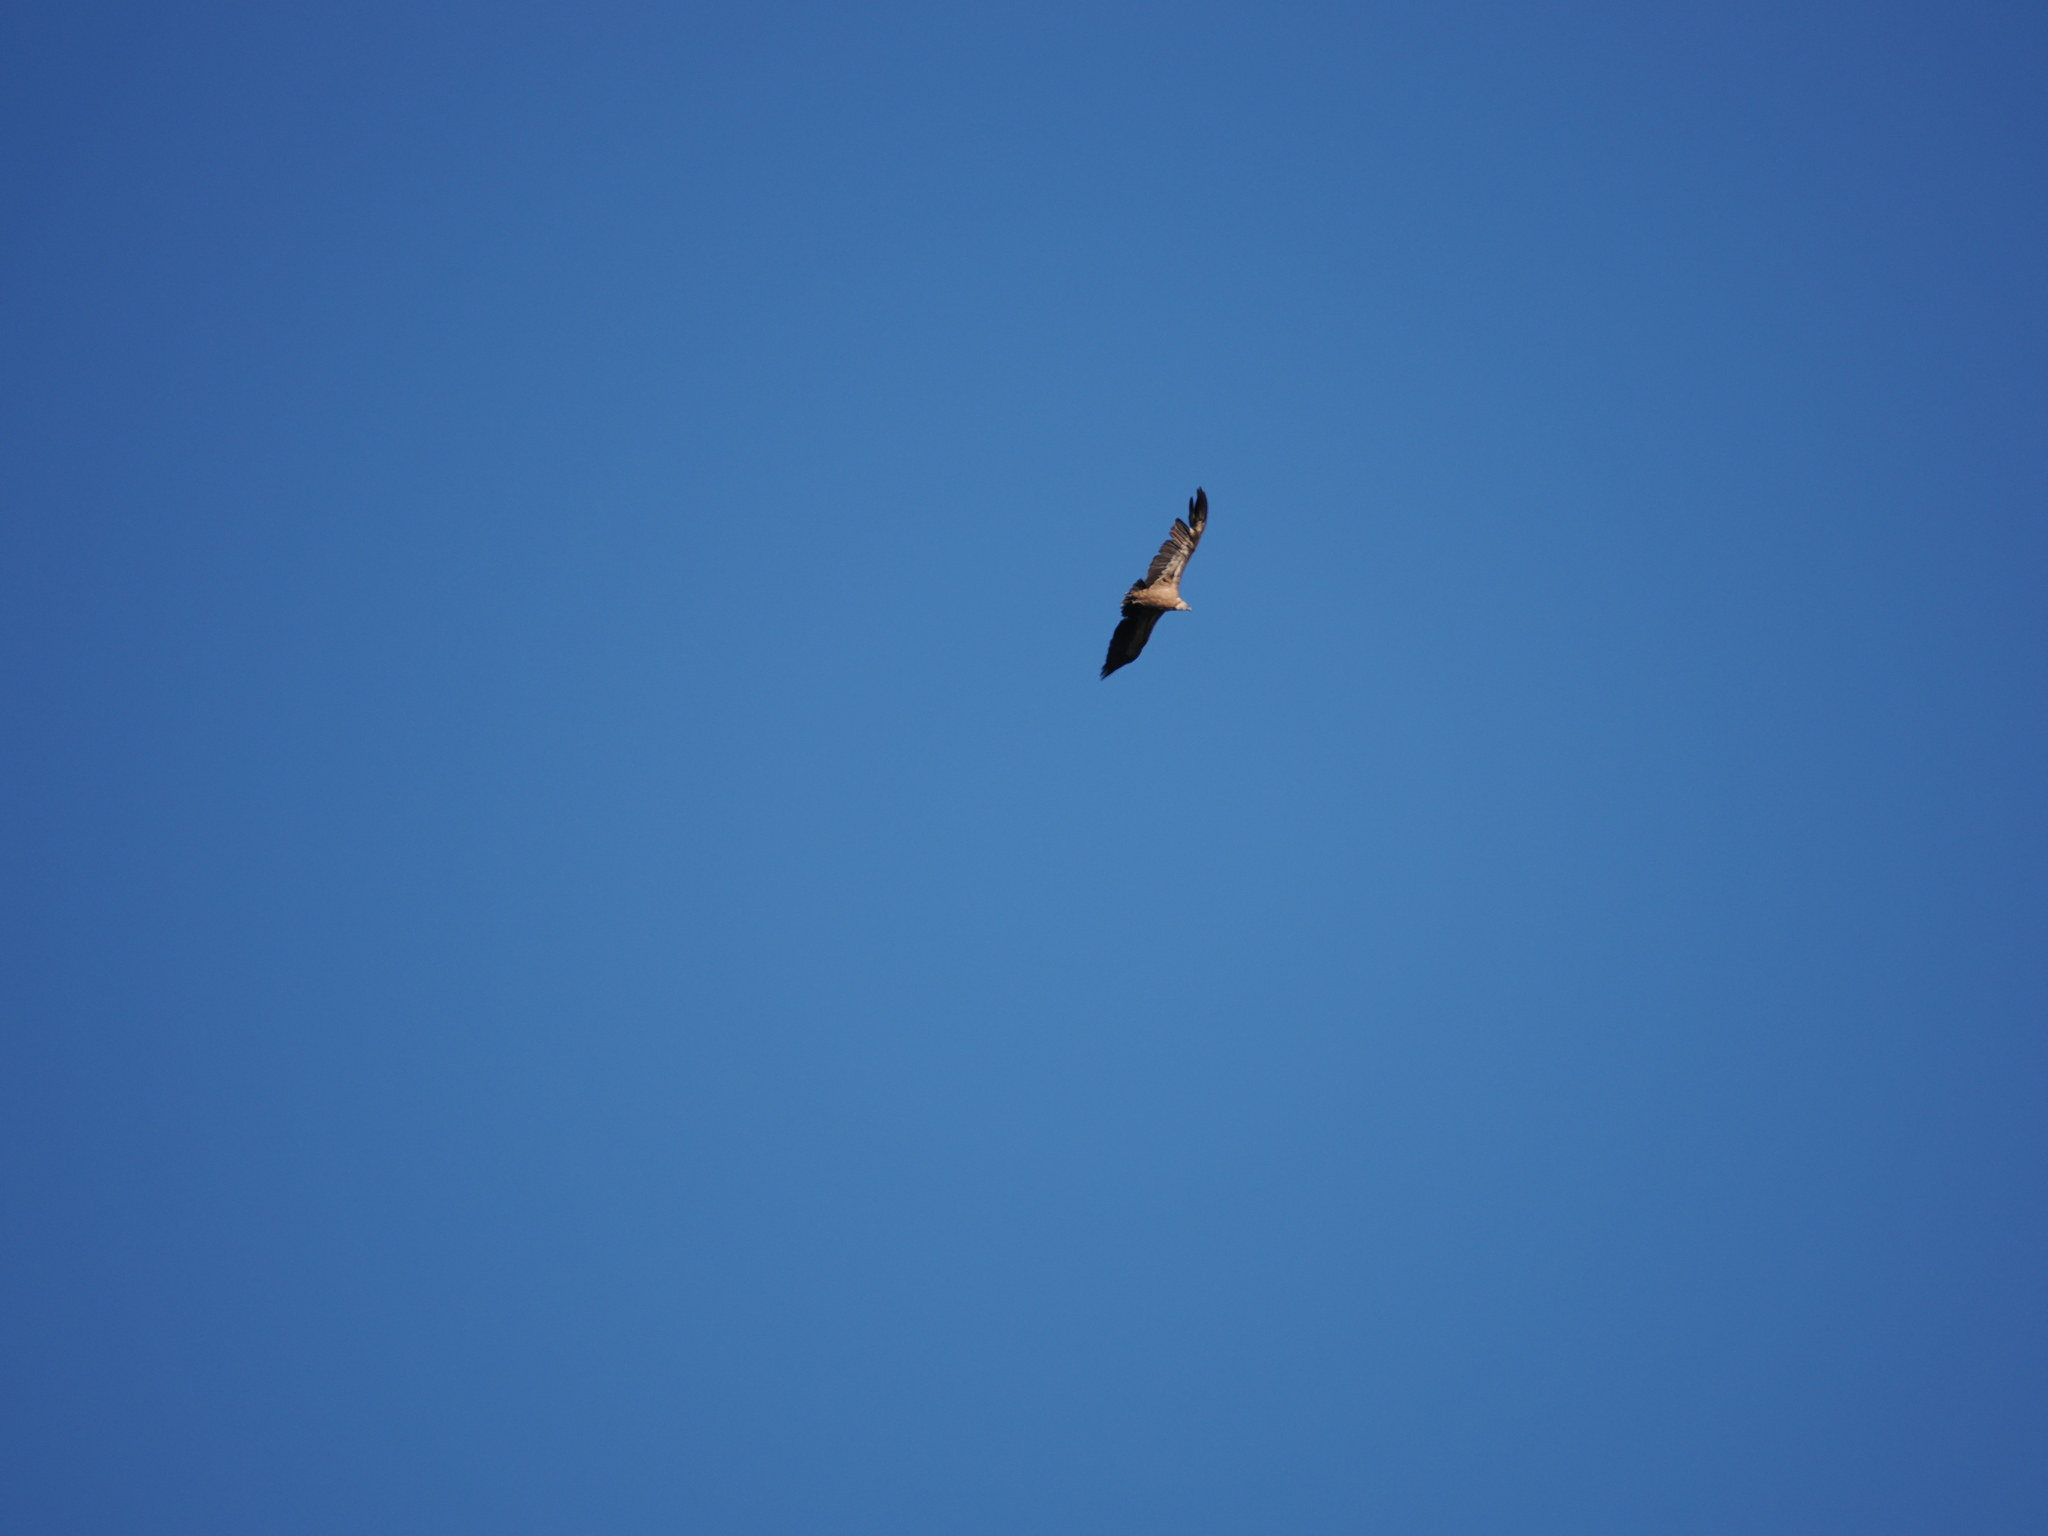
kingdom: Animalia
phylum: Chordata
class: Aves
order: Accipitriformes
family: Accipitridae
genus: Gyps
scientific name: Gyps fulvus
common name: Griffon vulture
